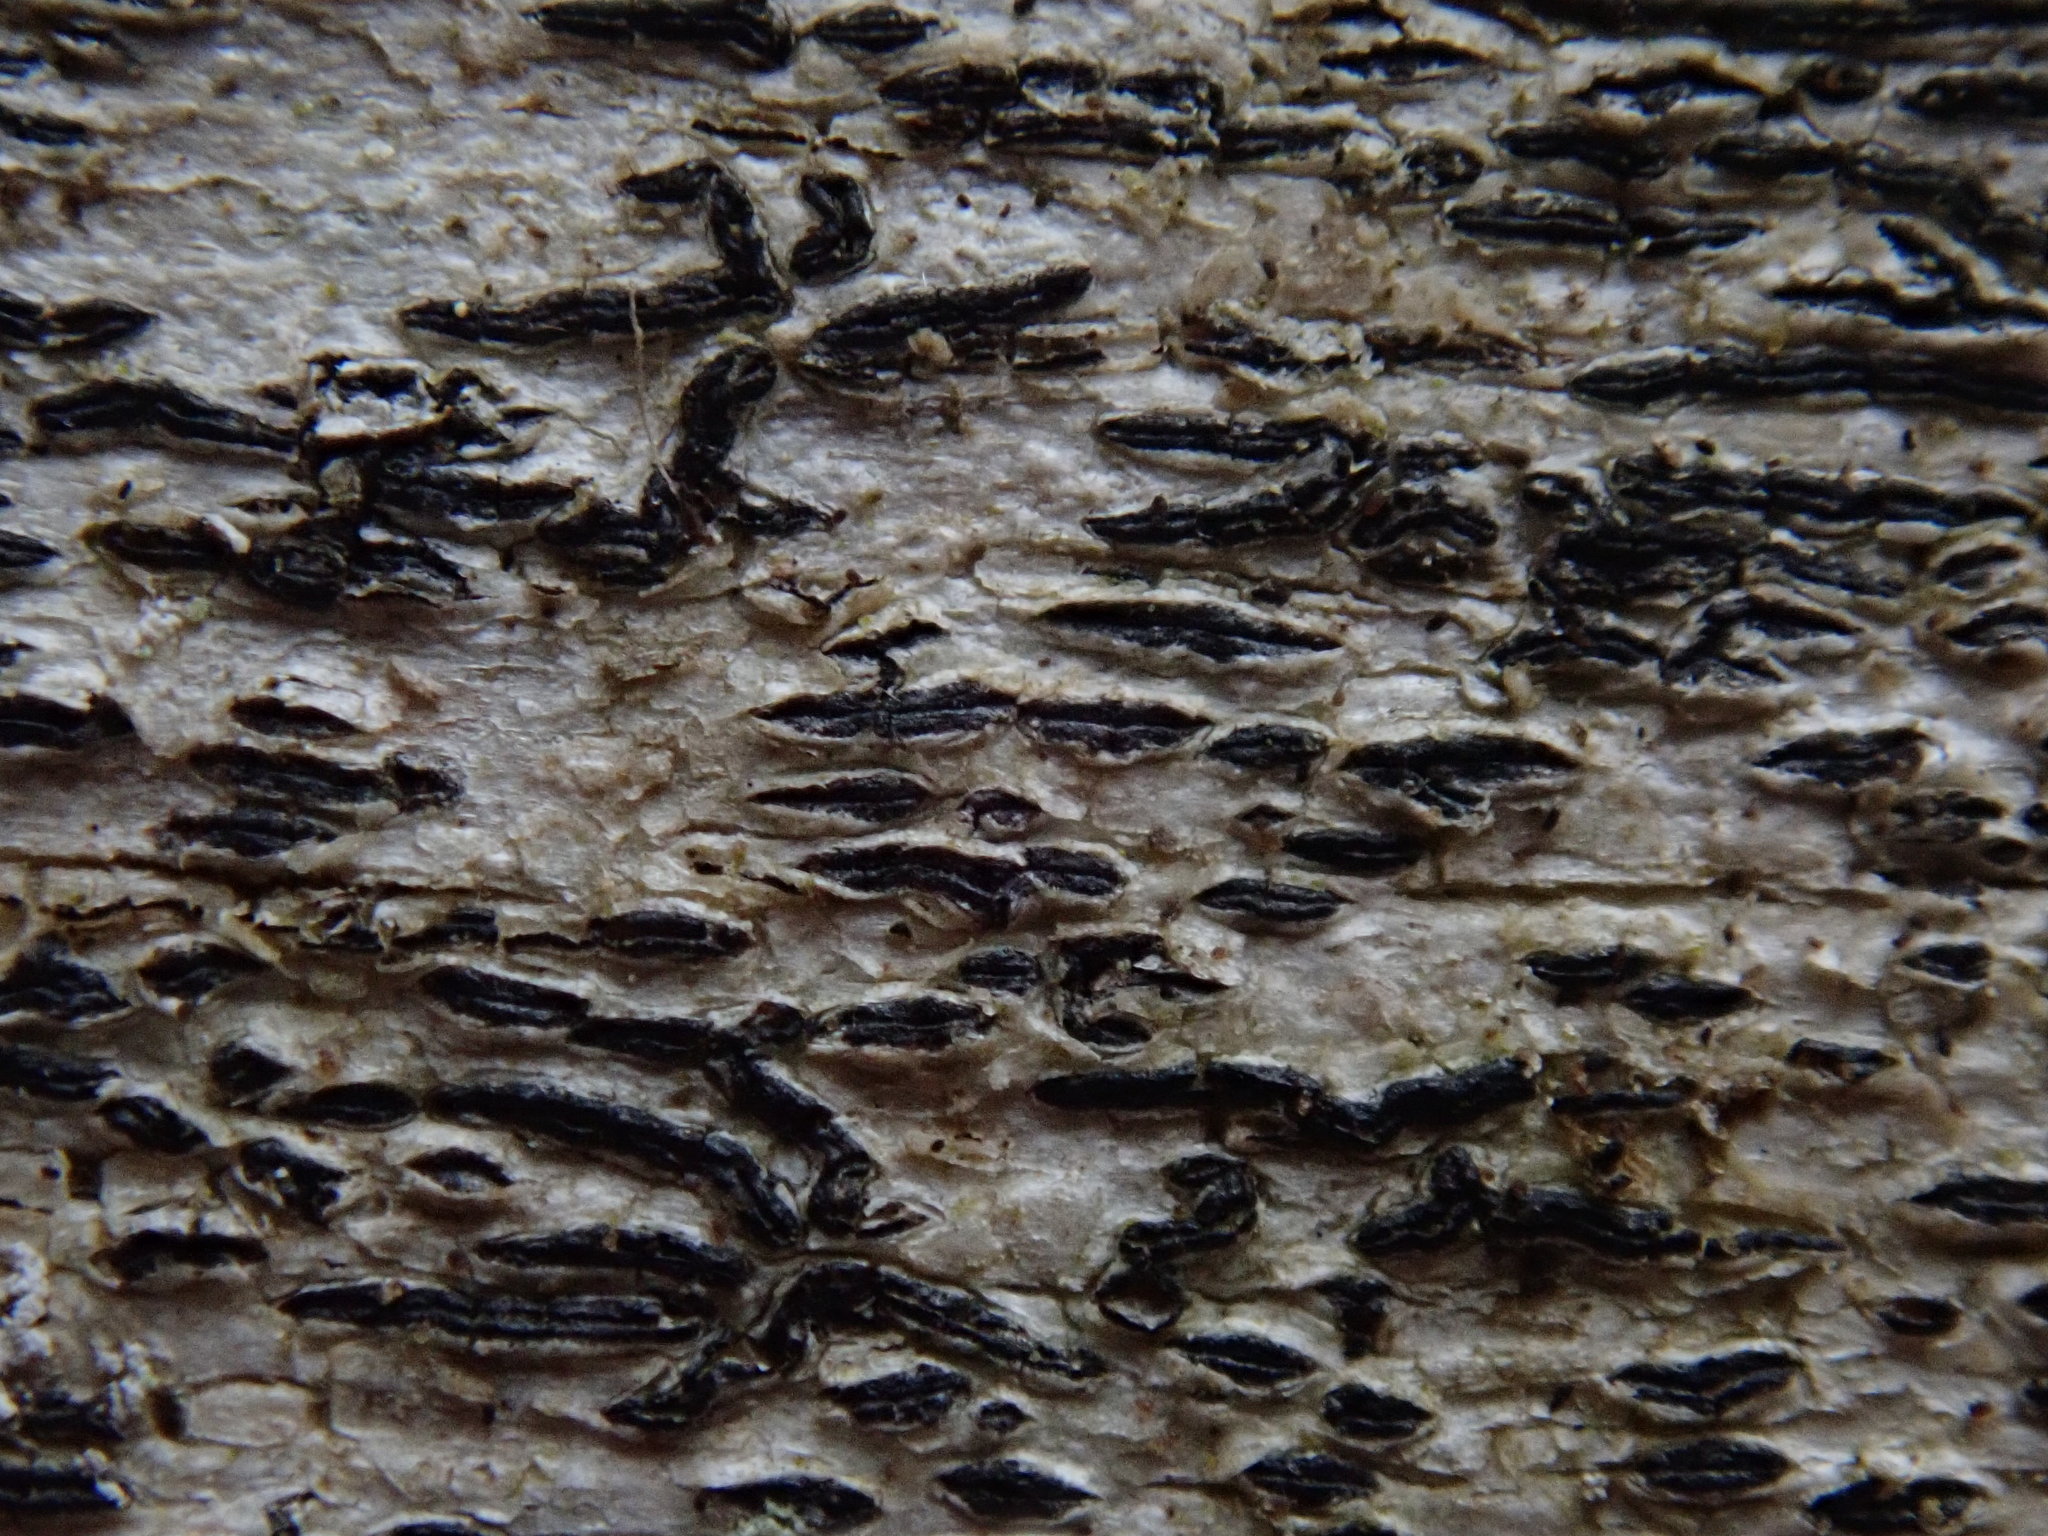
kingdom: Fungi
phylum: Ascomycota
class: Lecanoromycetes
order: Ostropales
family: Graphidaceae
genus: Graphis
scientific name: Graphis scripta
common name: Script lichen
